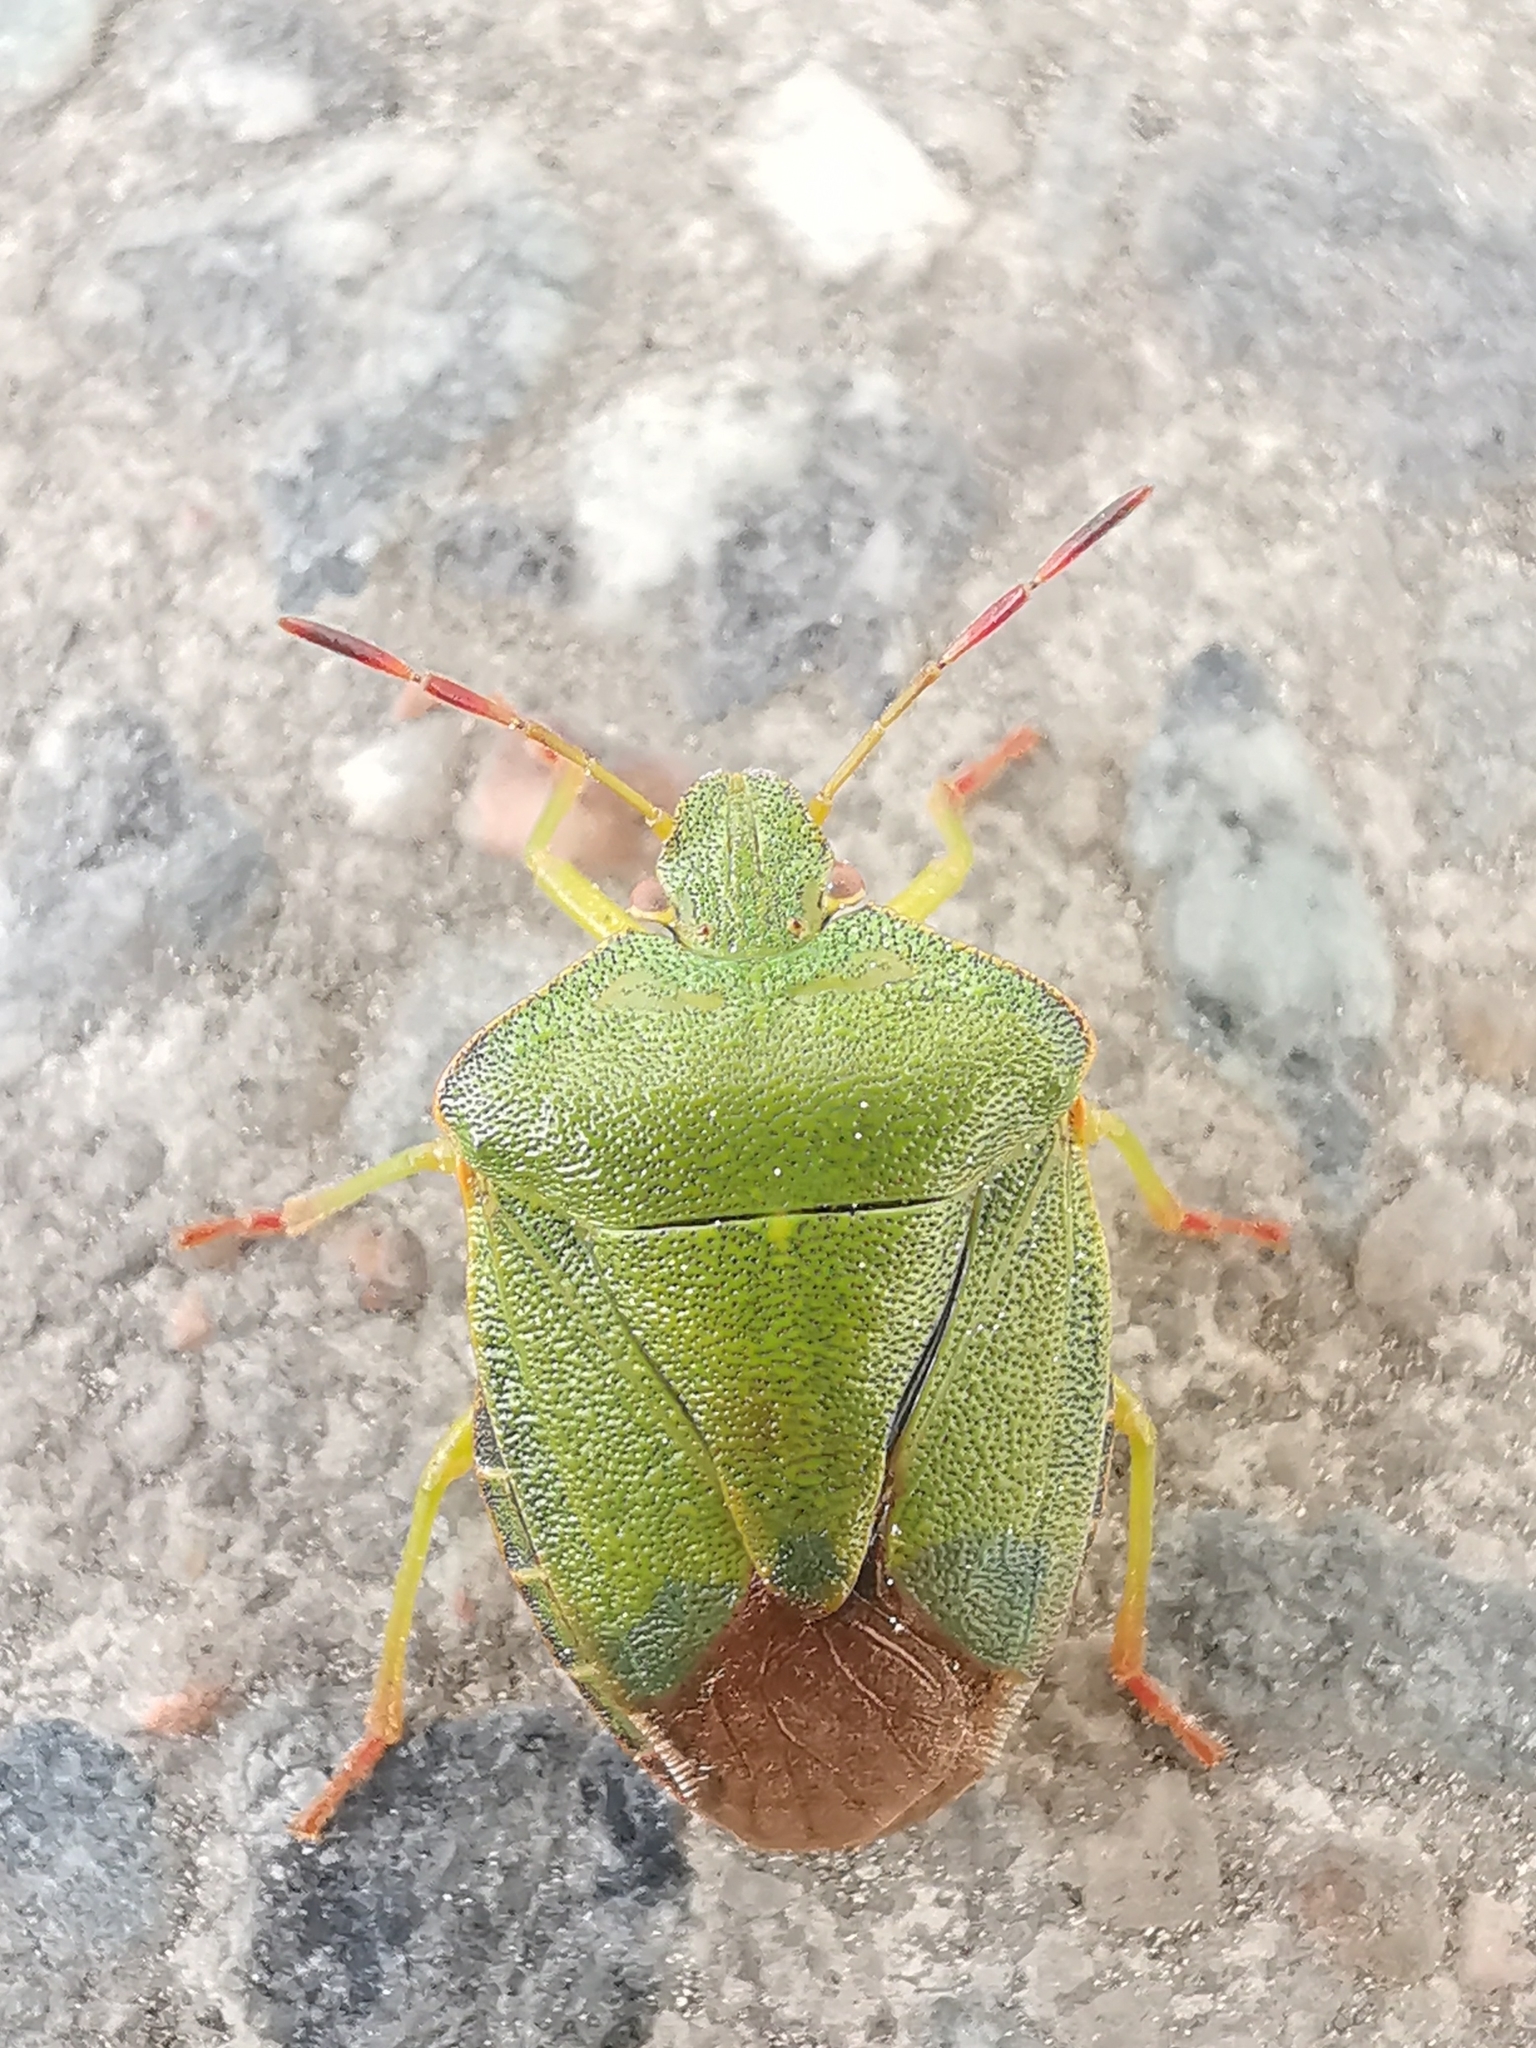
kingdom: Animalia
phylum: Arthropoda
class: Insecta
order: Hemiptera
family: Pentatomidae
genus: Palomena
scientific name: Palomena prasina
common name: Green shieldbug
